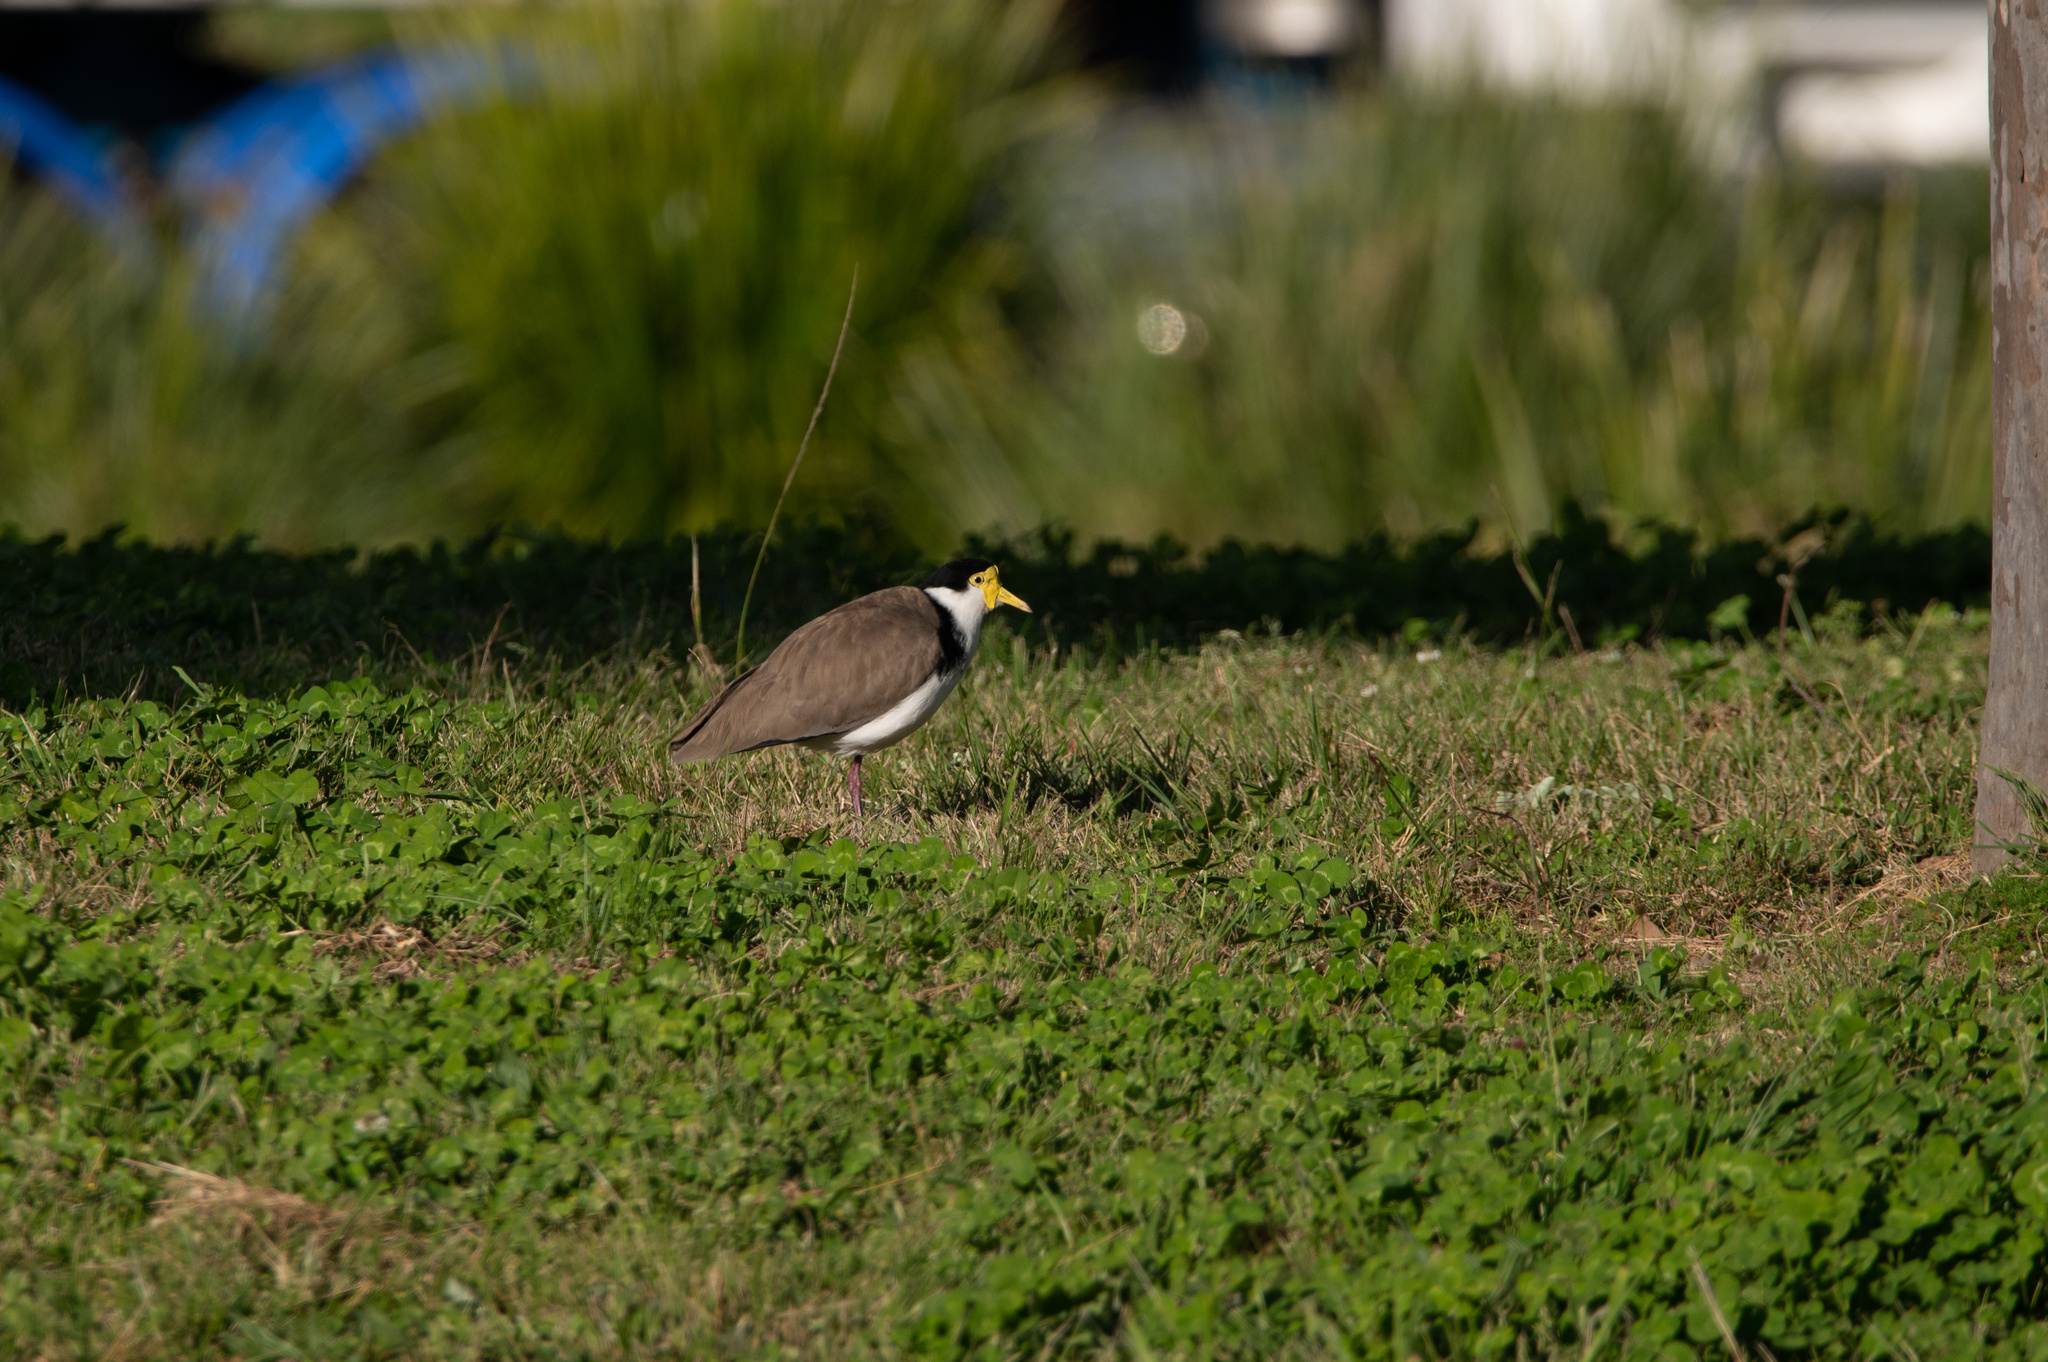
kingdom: Animalia
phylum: Chordata
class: Aves
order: Charadriiformes
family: Charadriidae
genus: Vanellus
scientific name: Vanellus miles
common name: Masked lapwing
